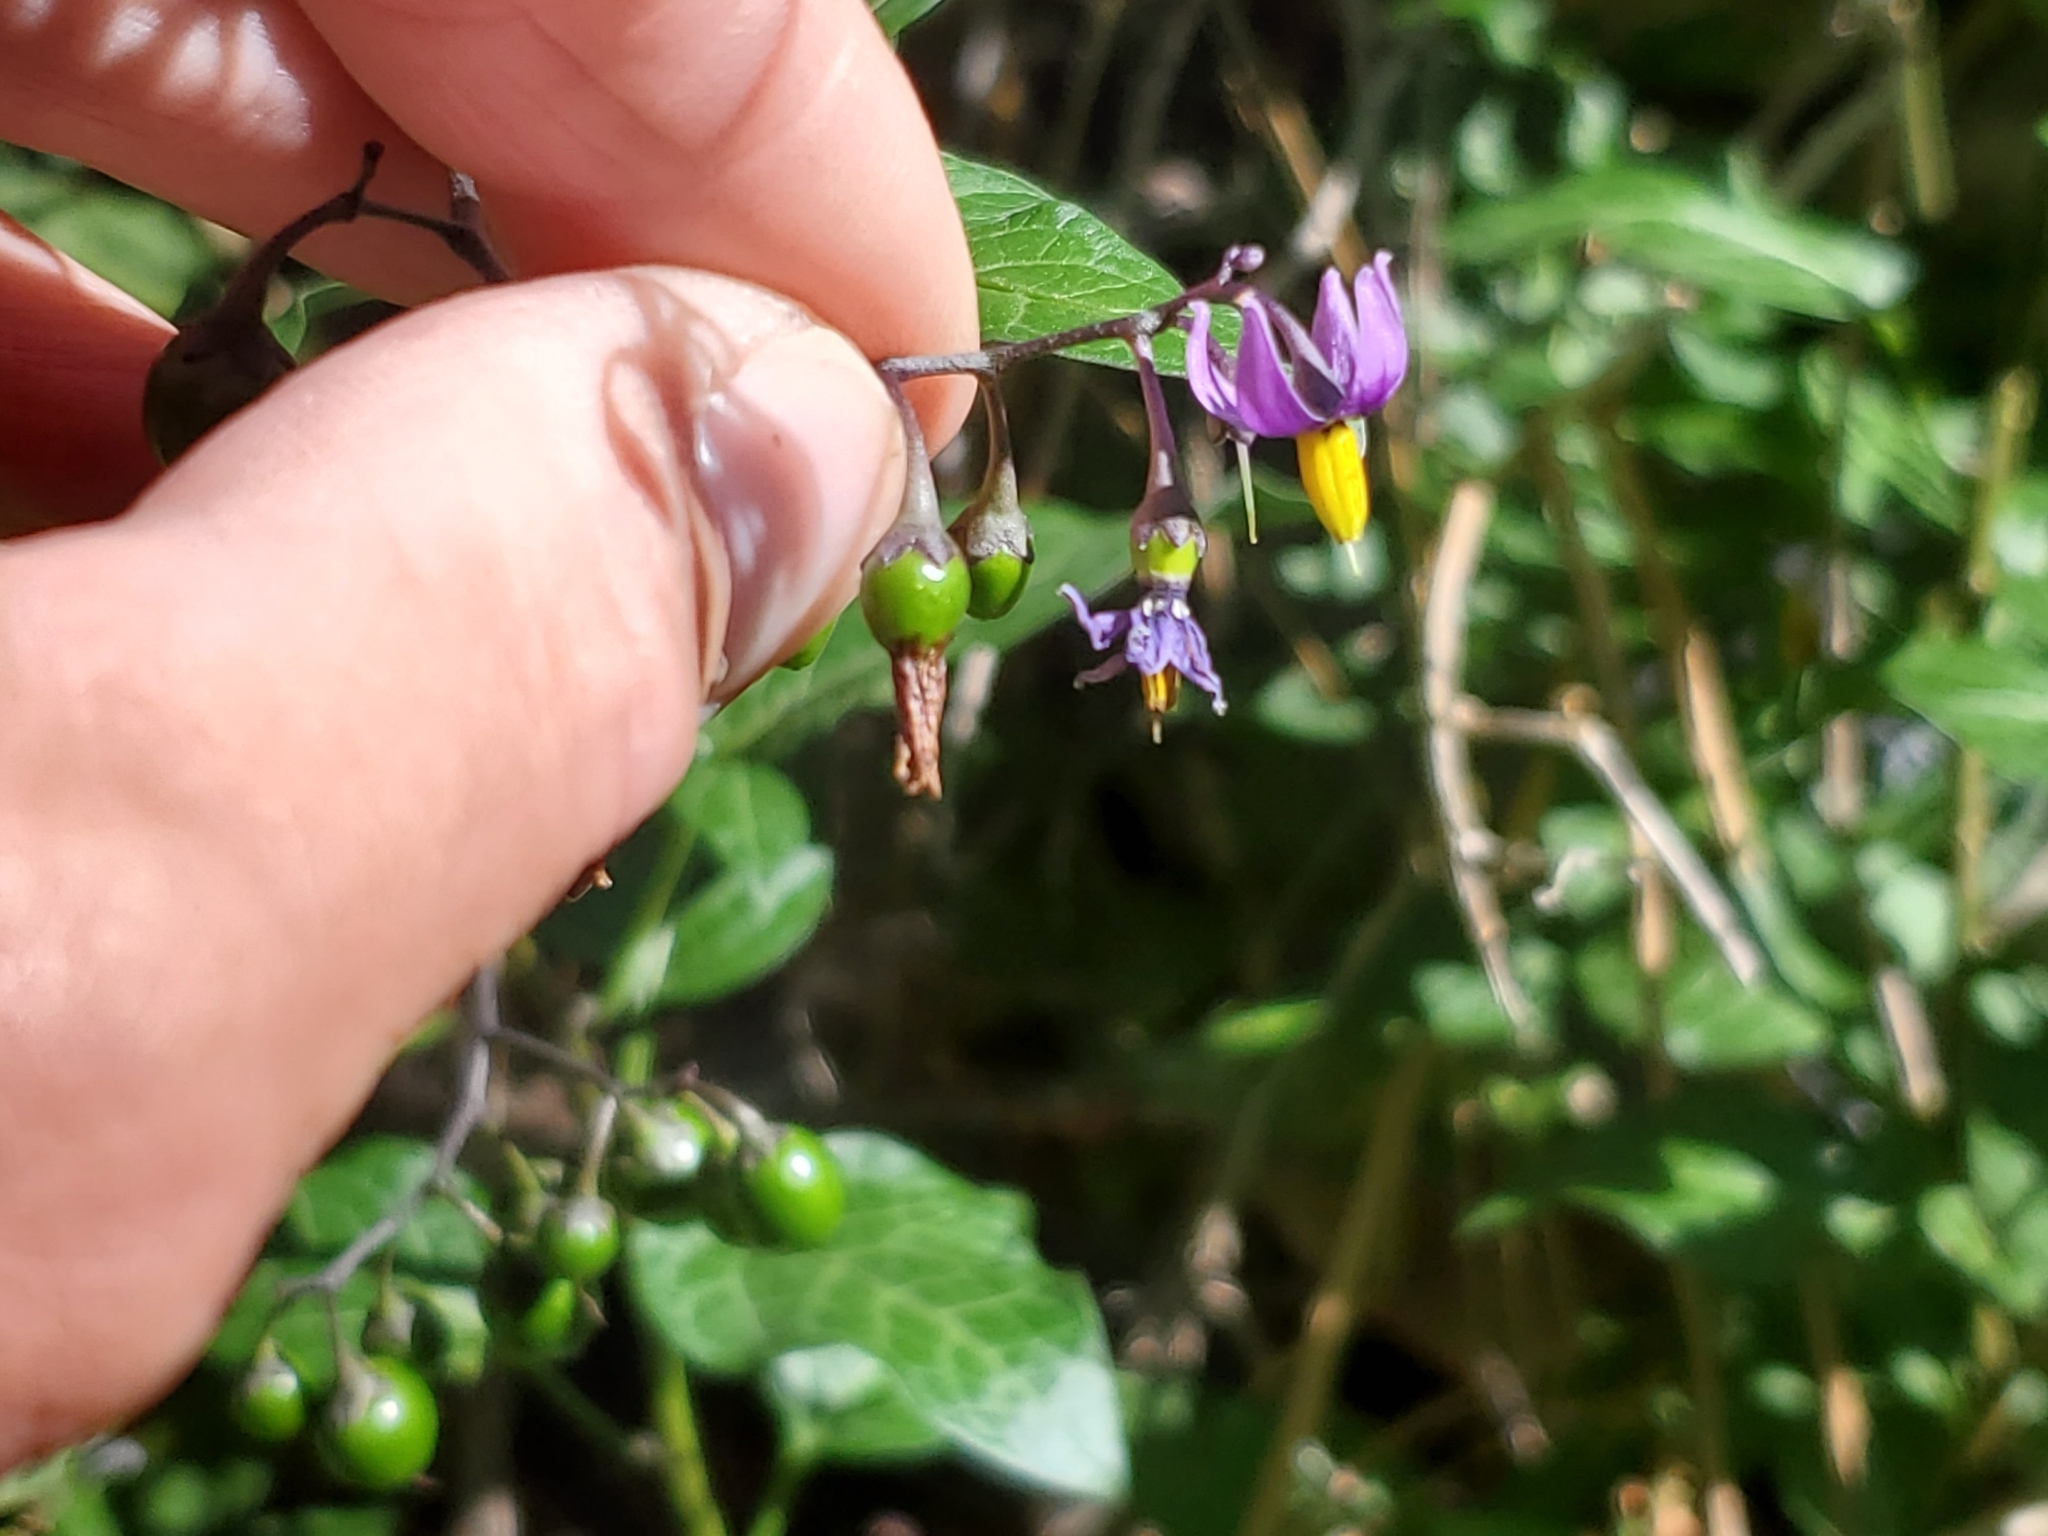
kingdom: Plantae
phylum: Tracheophyta
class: Magnoliopsida
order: Solanales
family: Solanaceae
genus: Solanum
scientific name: Solanum dulcamara
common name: Climbing nightshade
